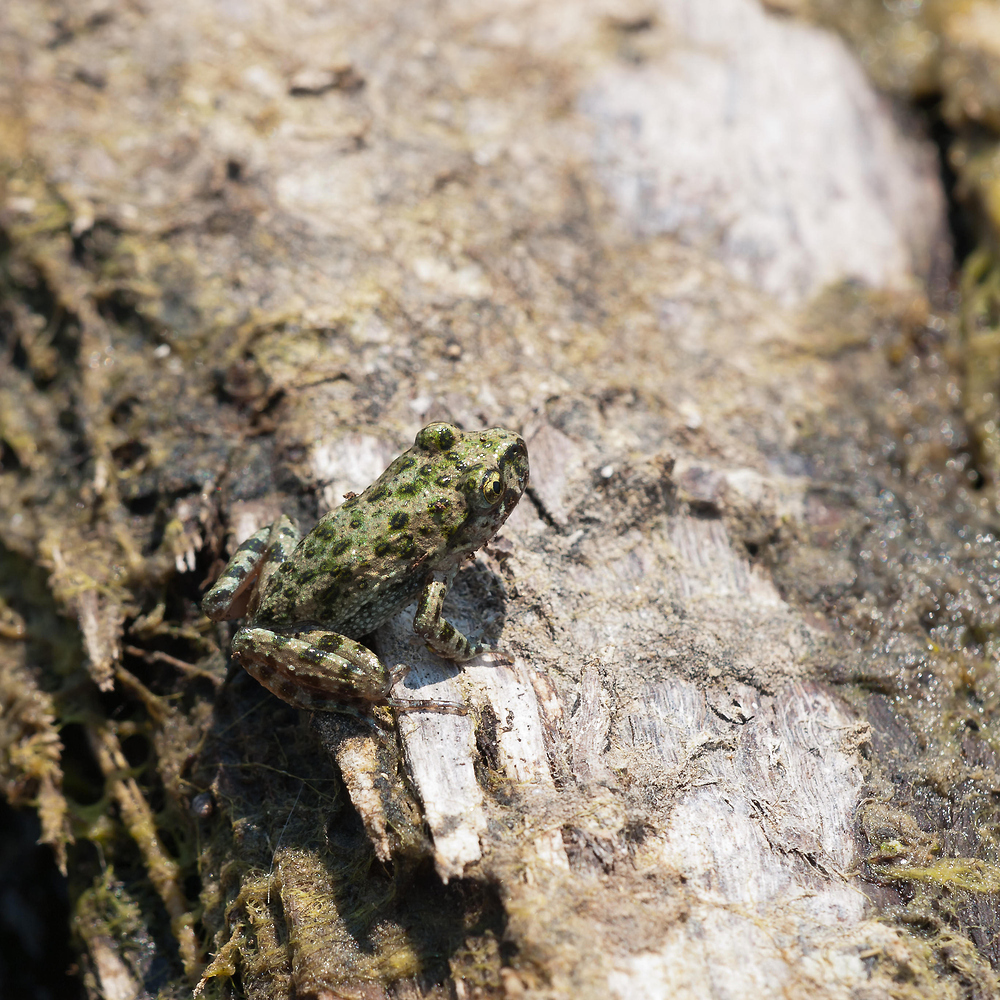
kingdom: Animalia
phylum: Chordata
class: Amphibia
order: Anura
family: Pelodytidae
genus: Pelodytes
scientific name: Pelodytes punctatus
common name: Parsley frog
